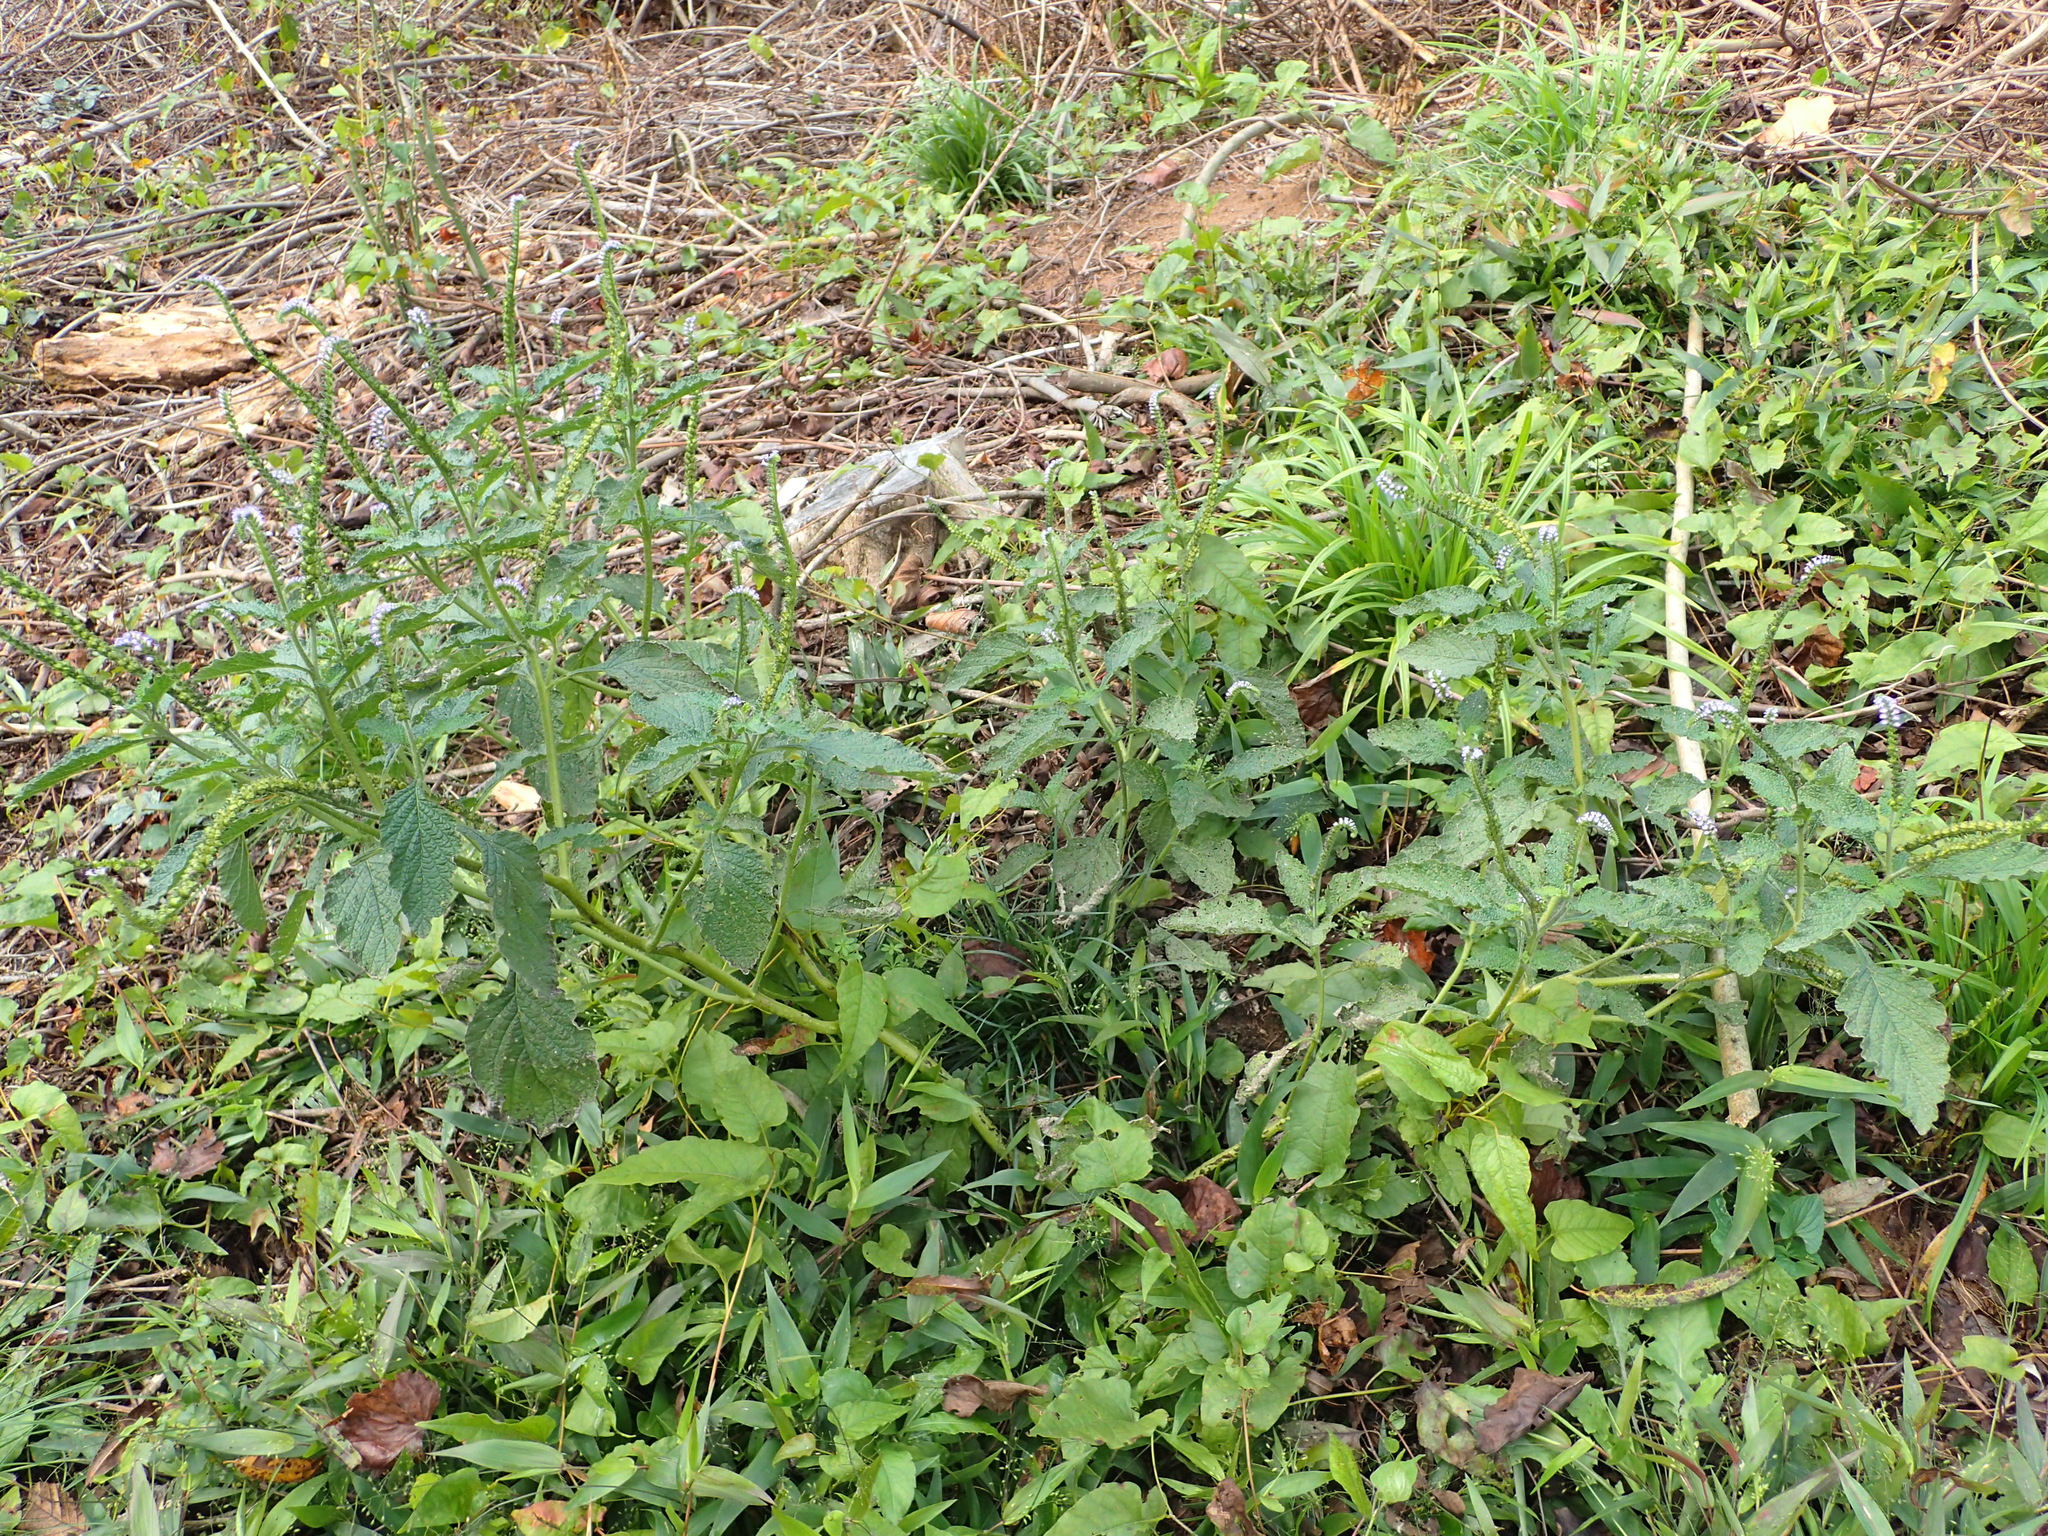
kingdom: Plantae
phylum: Tracheophyta
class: Magnoliopsida
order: Boraginales
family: Heliotropiaceae
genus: Heliotropium
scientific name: Heliotropium indicum
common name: Indian heliotrope
